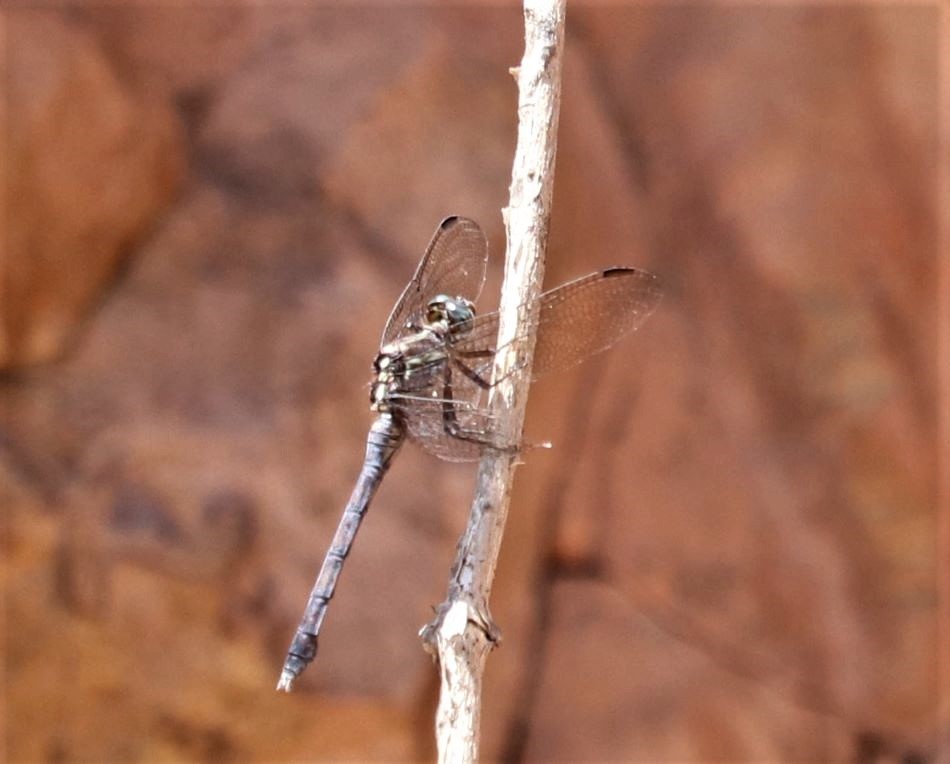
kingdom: Animalia
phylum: Arthropoda
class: Insecta
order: Odonata
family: Libellulidae
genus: Orthetrum
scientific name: Orthetrum julia
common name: Julia skimmer
